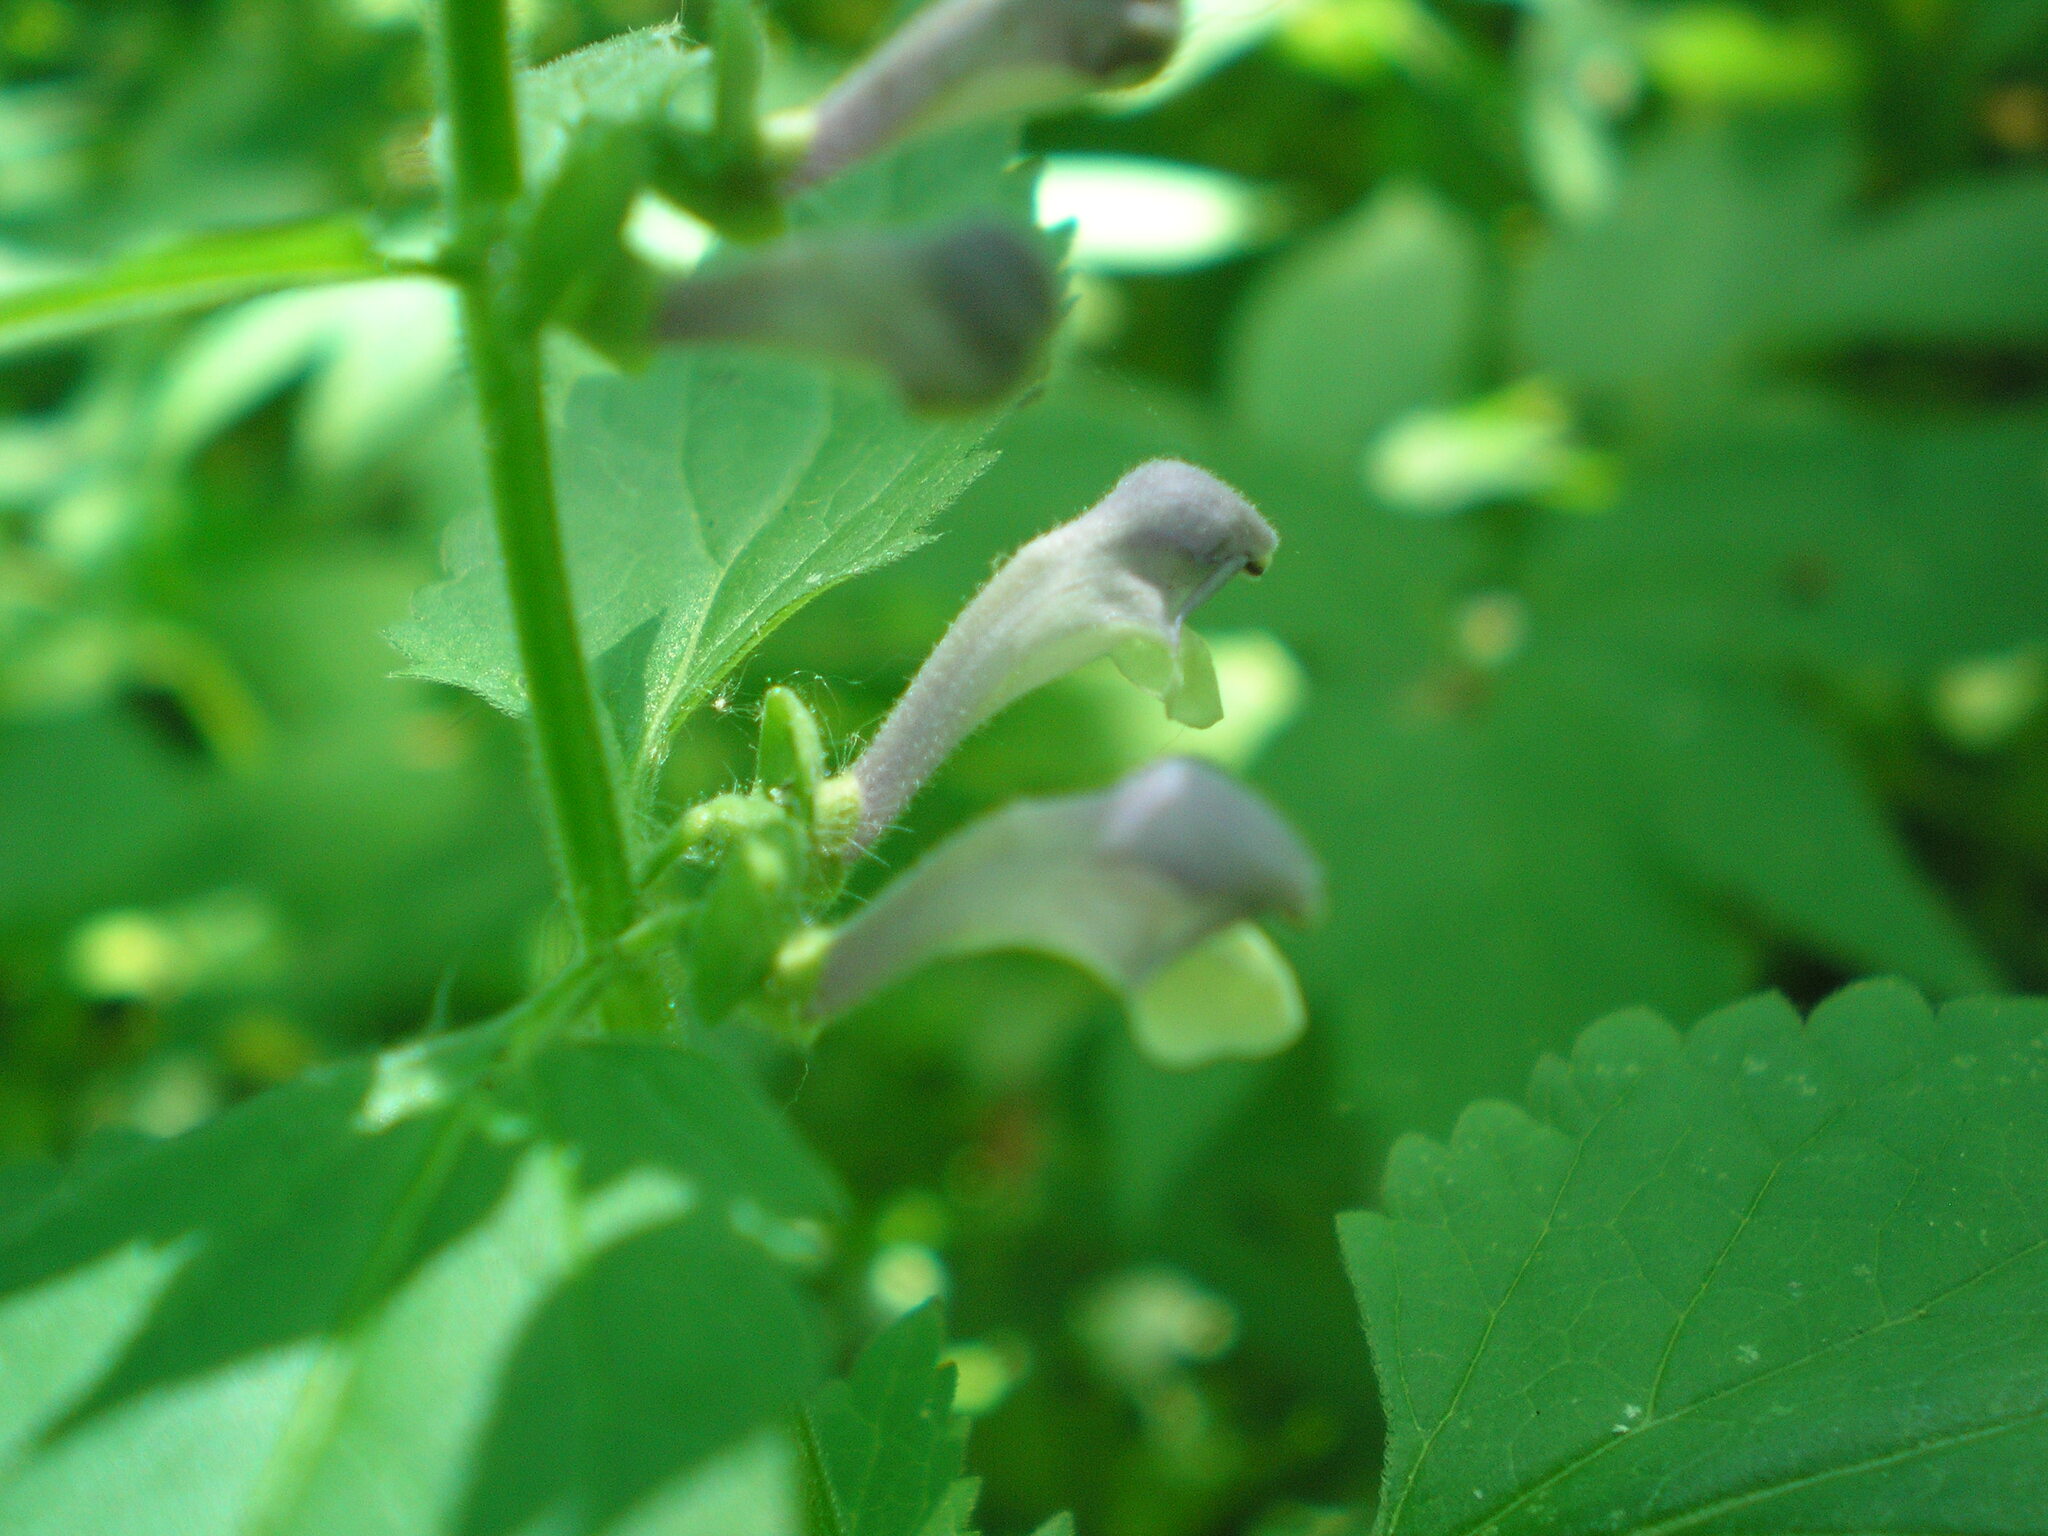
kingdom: Plantae
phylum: Tracheophyta
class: Magnoliopsida
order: Lamiales
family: Lamiaceae
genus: Scutellaria
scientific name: Scutellaria altissima
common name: Somerset skullcap
